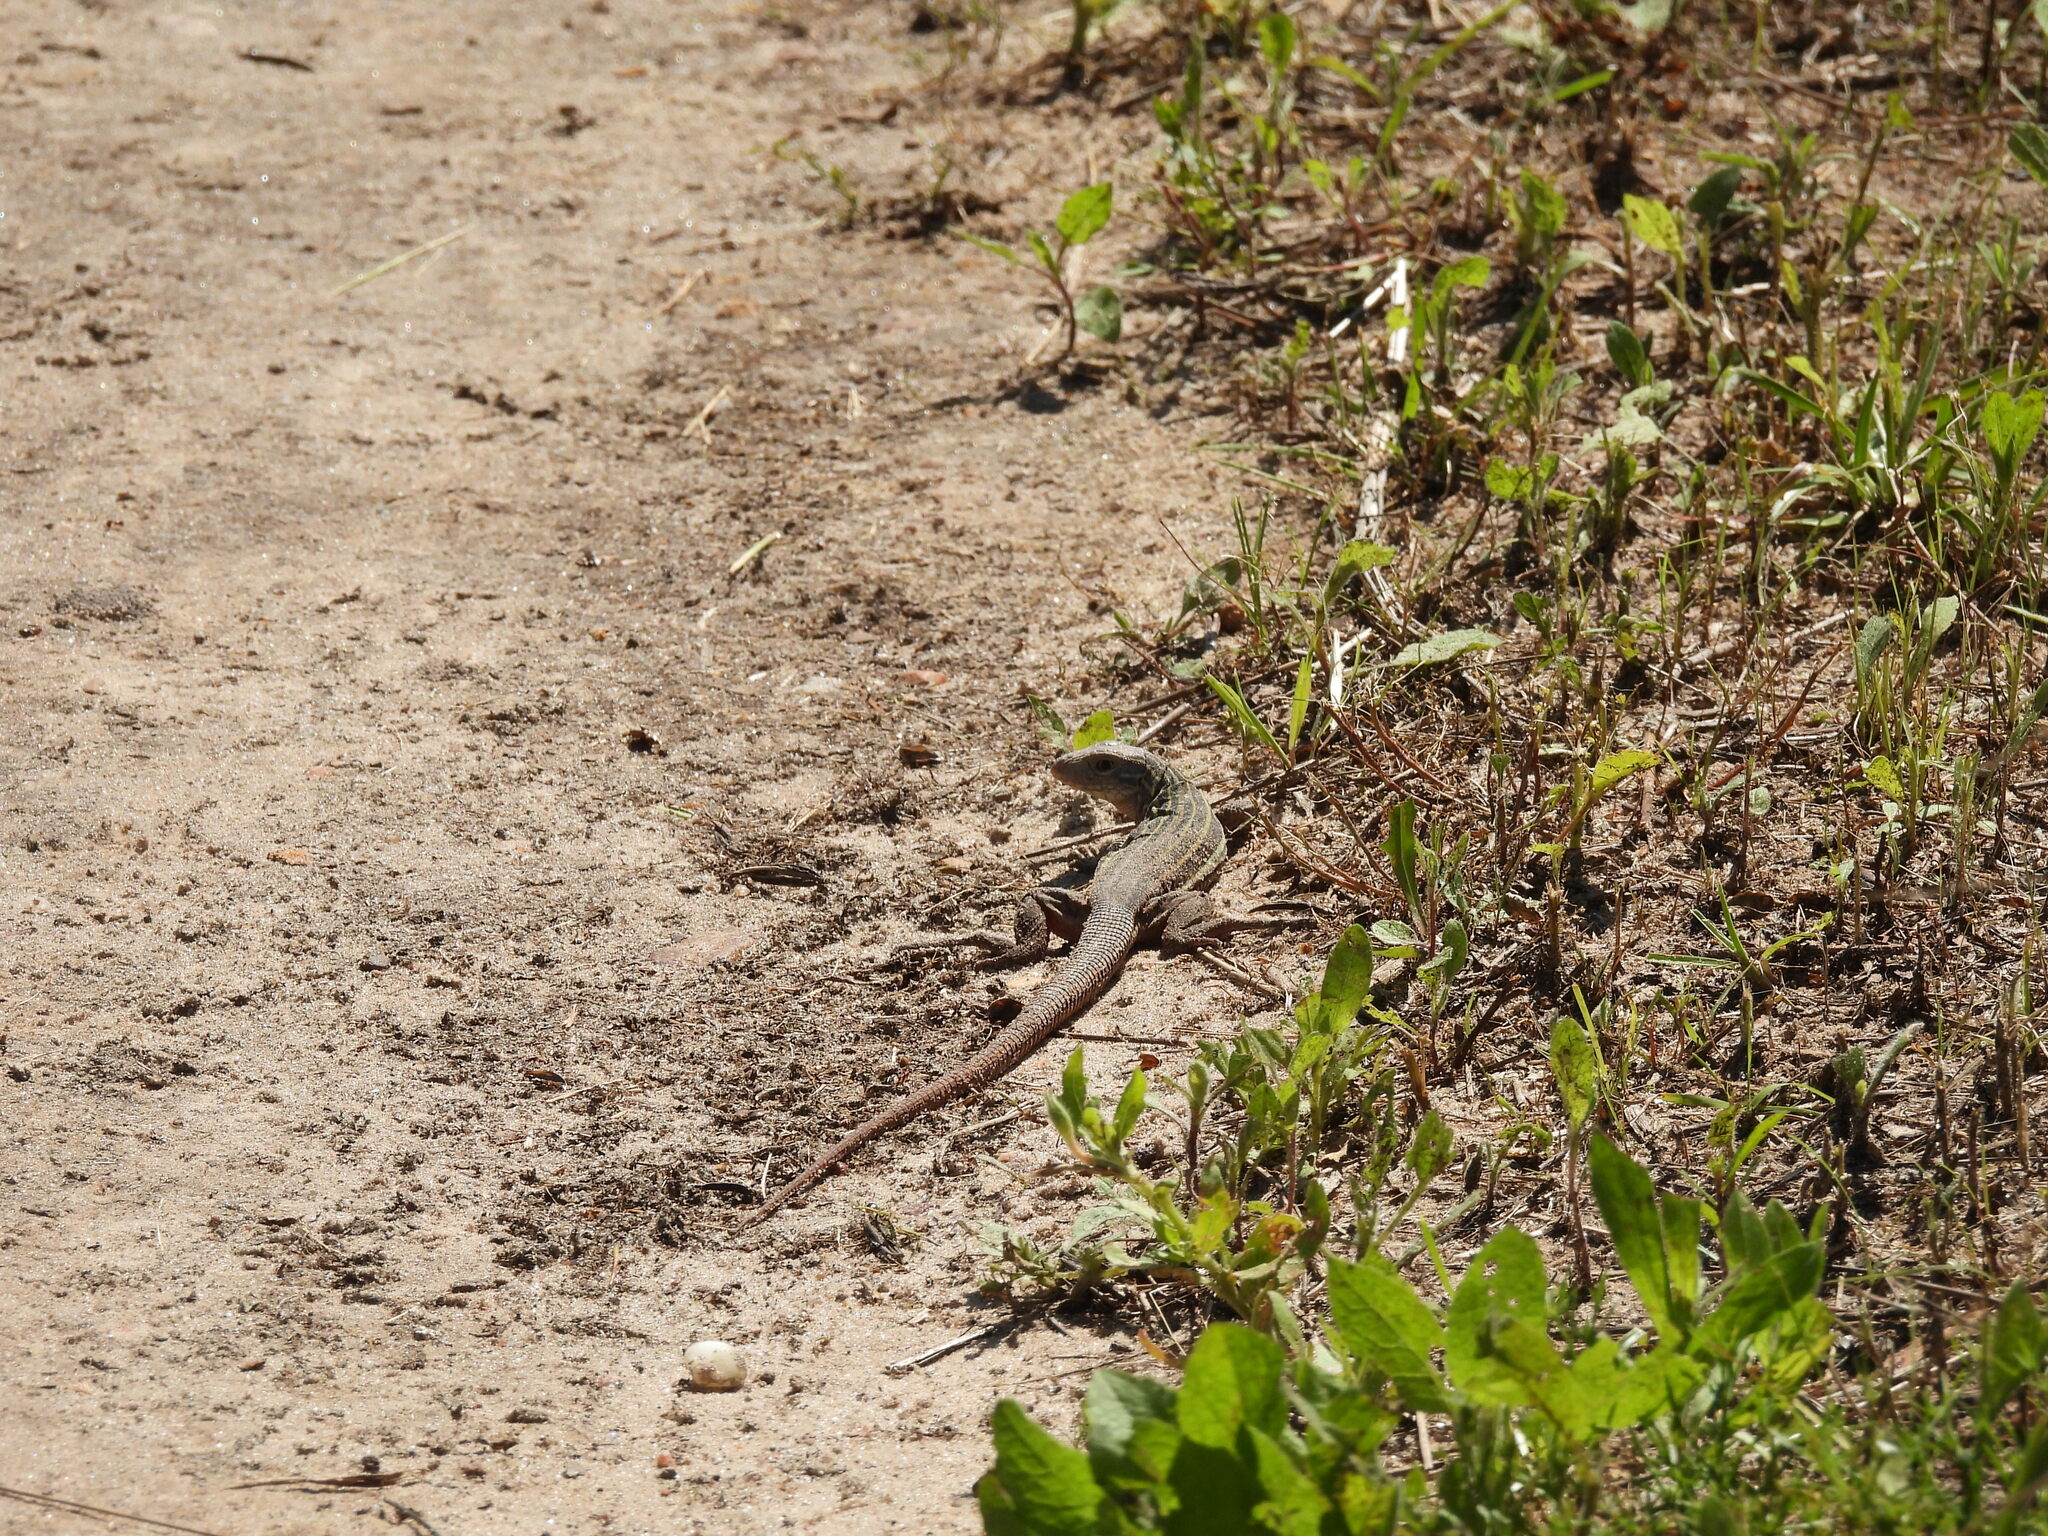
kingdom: Animalia
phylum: Chordata
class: Squamata
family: Teiidae
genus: Aspidoscelis
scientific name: Aspidoscelis gularis
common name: Eastern spotted whiptail
